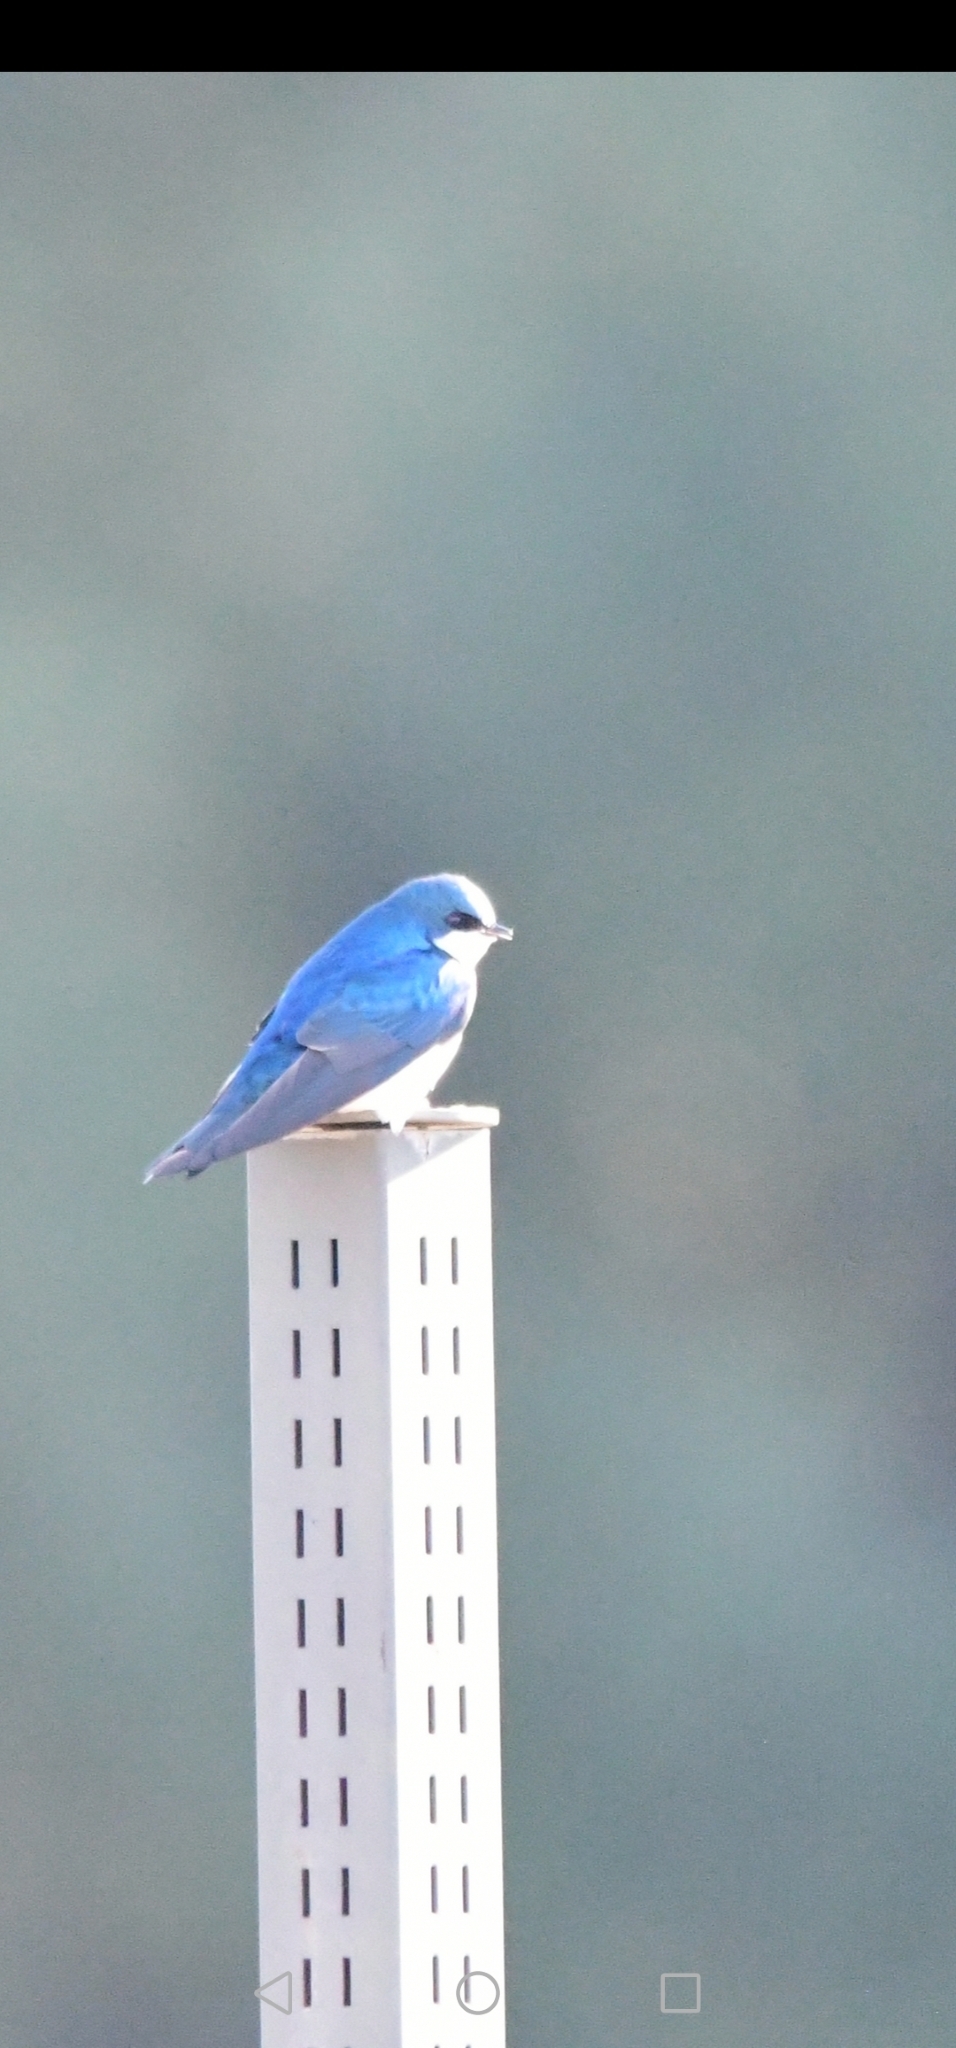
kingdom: Animalia
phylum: Chordata
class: Aves
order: Passeriformes
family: Turdidae
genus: Sialia
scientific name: Sialia sialis
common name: Eastern bluebird
